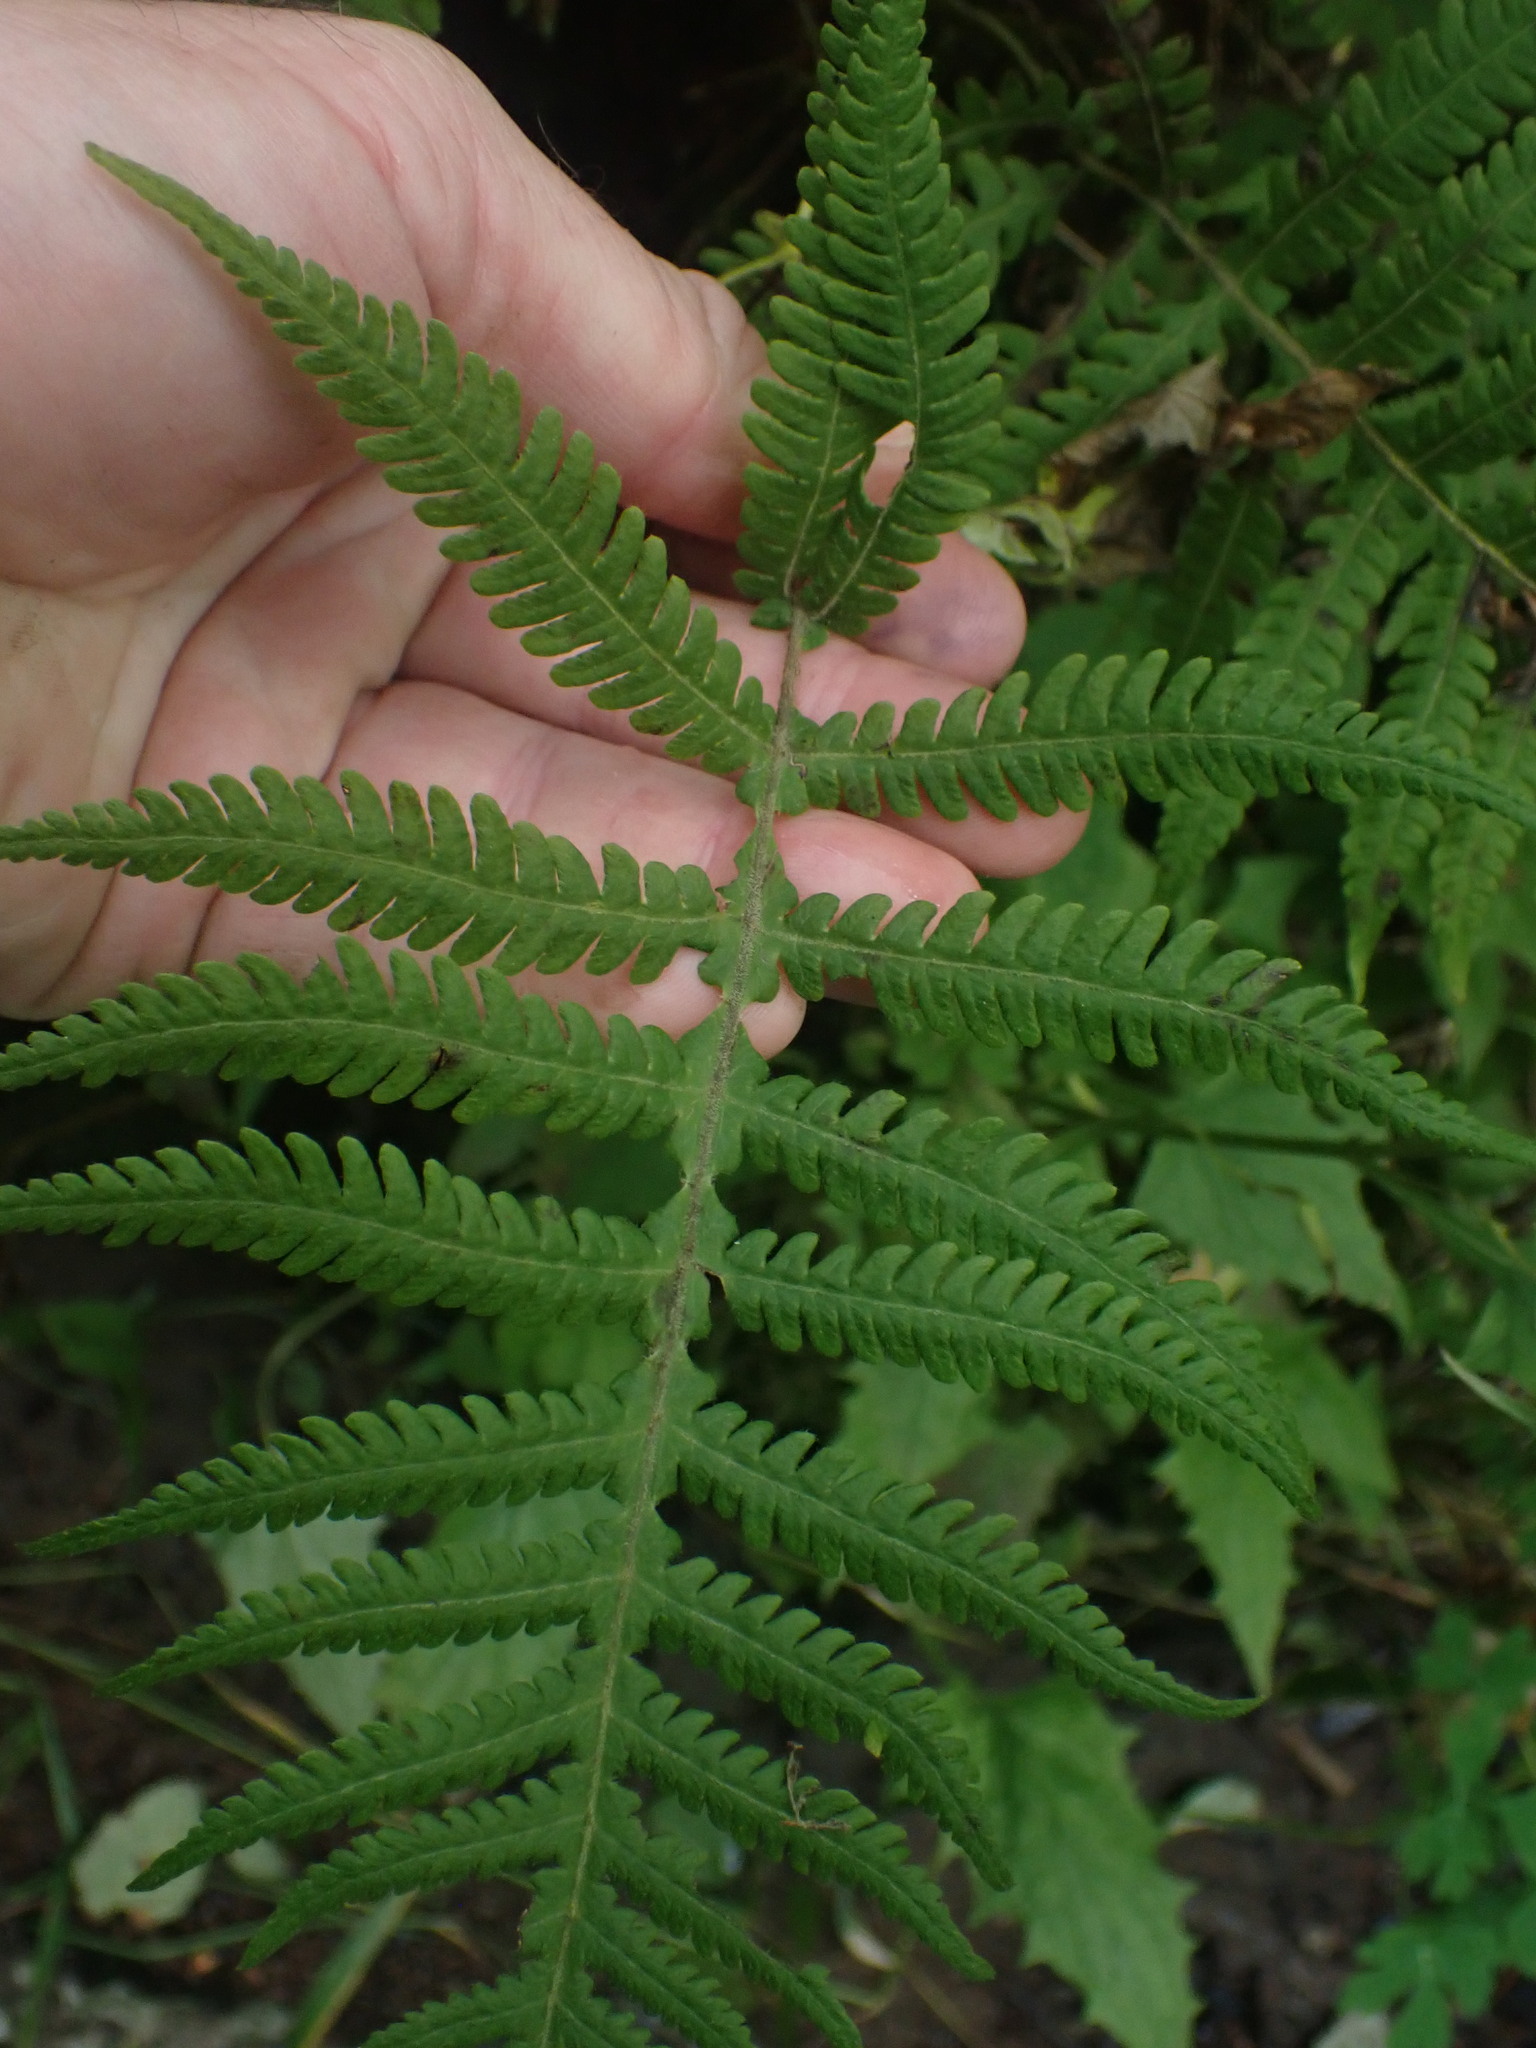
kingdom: Plantae
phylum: Tracheophyta
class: Polypodiopsida
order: Polypodiales
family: Thelypteridaceae
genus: Phegopteris
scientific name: Phegopteris connectilis
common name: Beech fern
